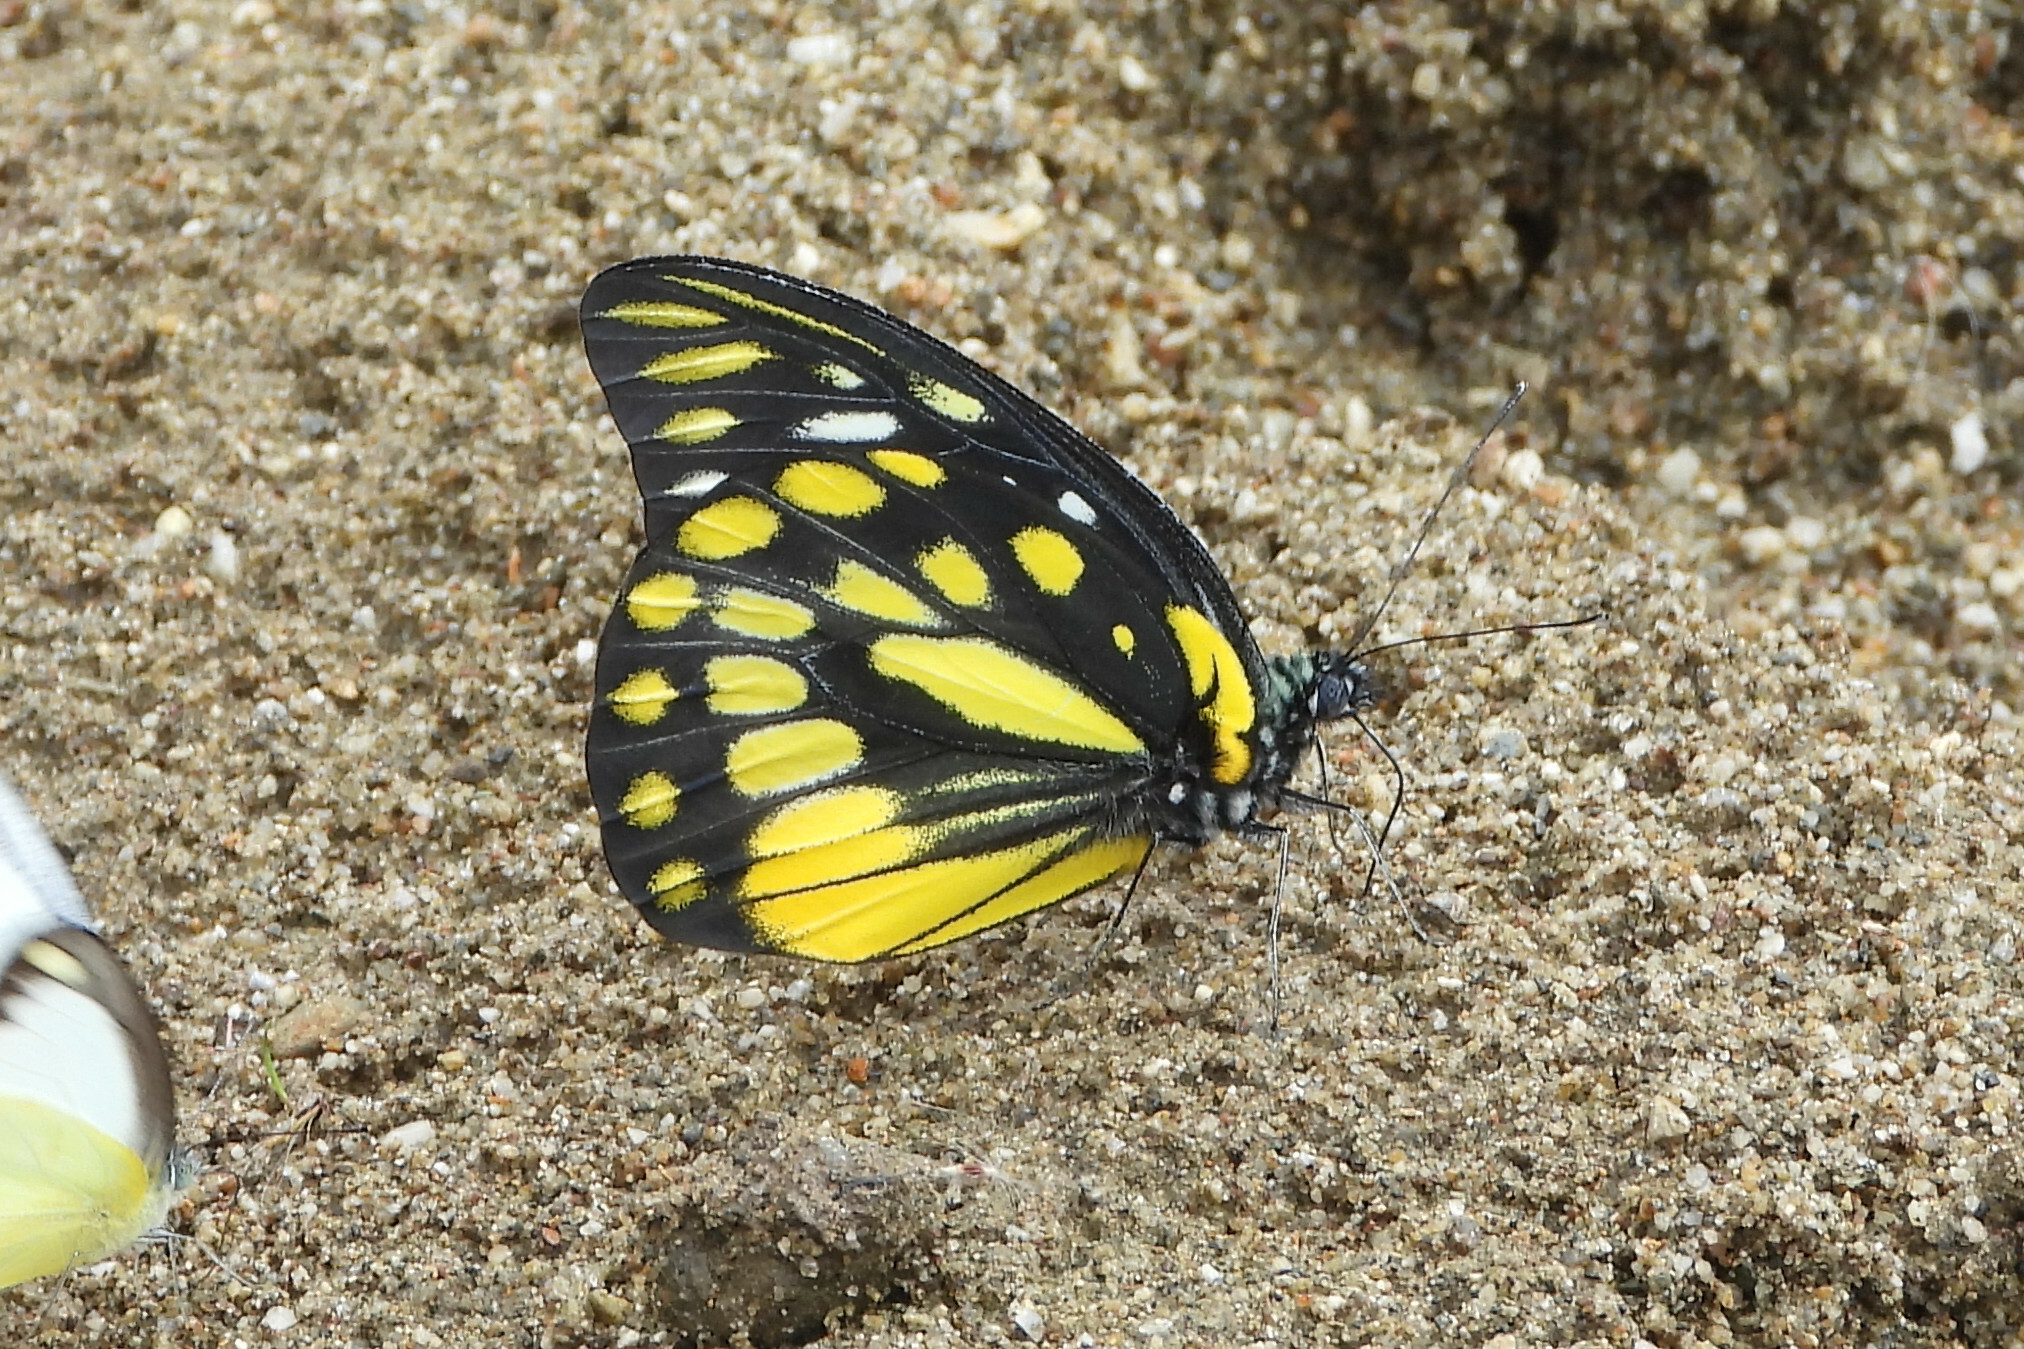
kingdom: Animalia
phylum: Arthropoda
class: Insecta
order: Lepidoptera
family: Pieridae
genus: Prioneris
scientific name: Prioneris thestylis
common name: Spotted sawtooth
